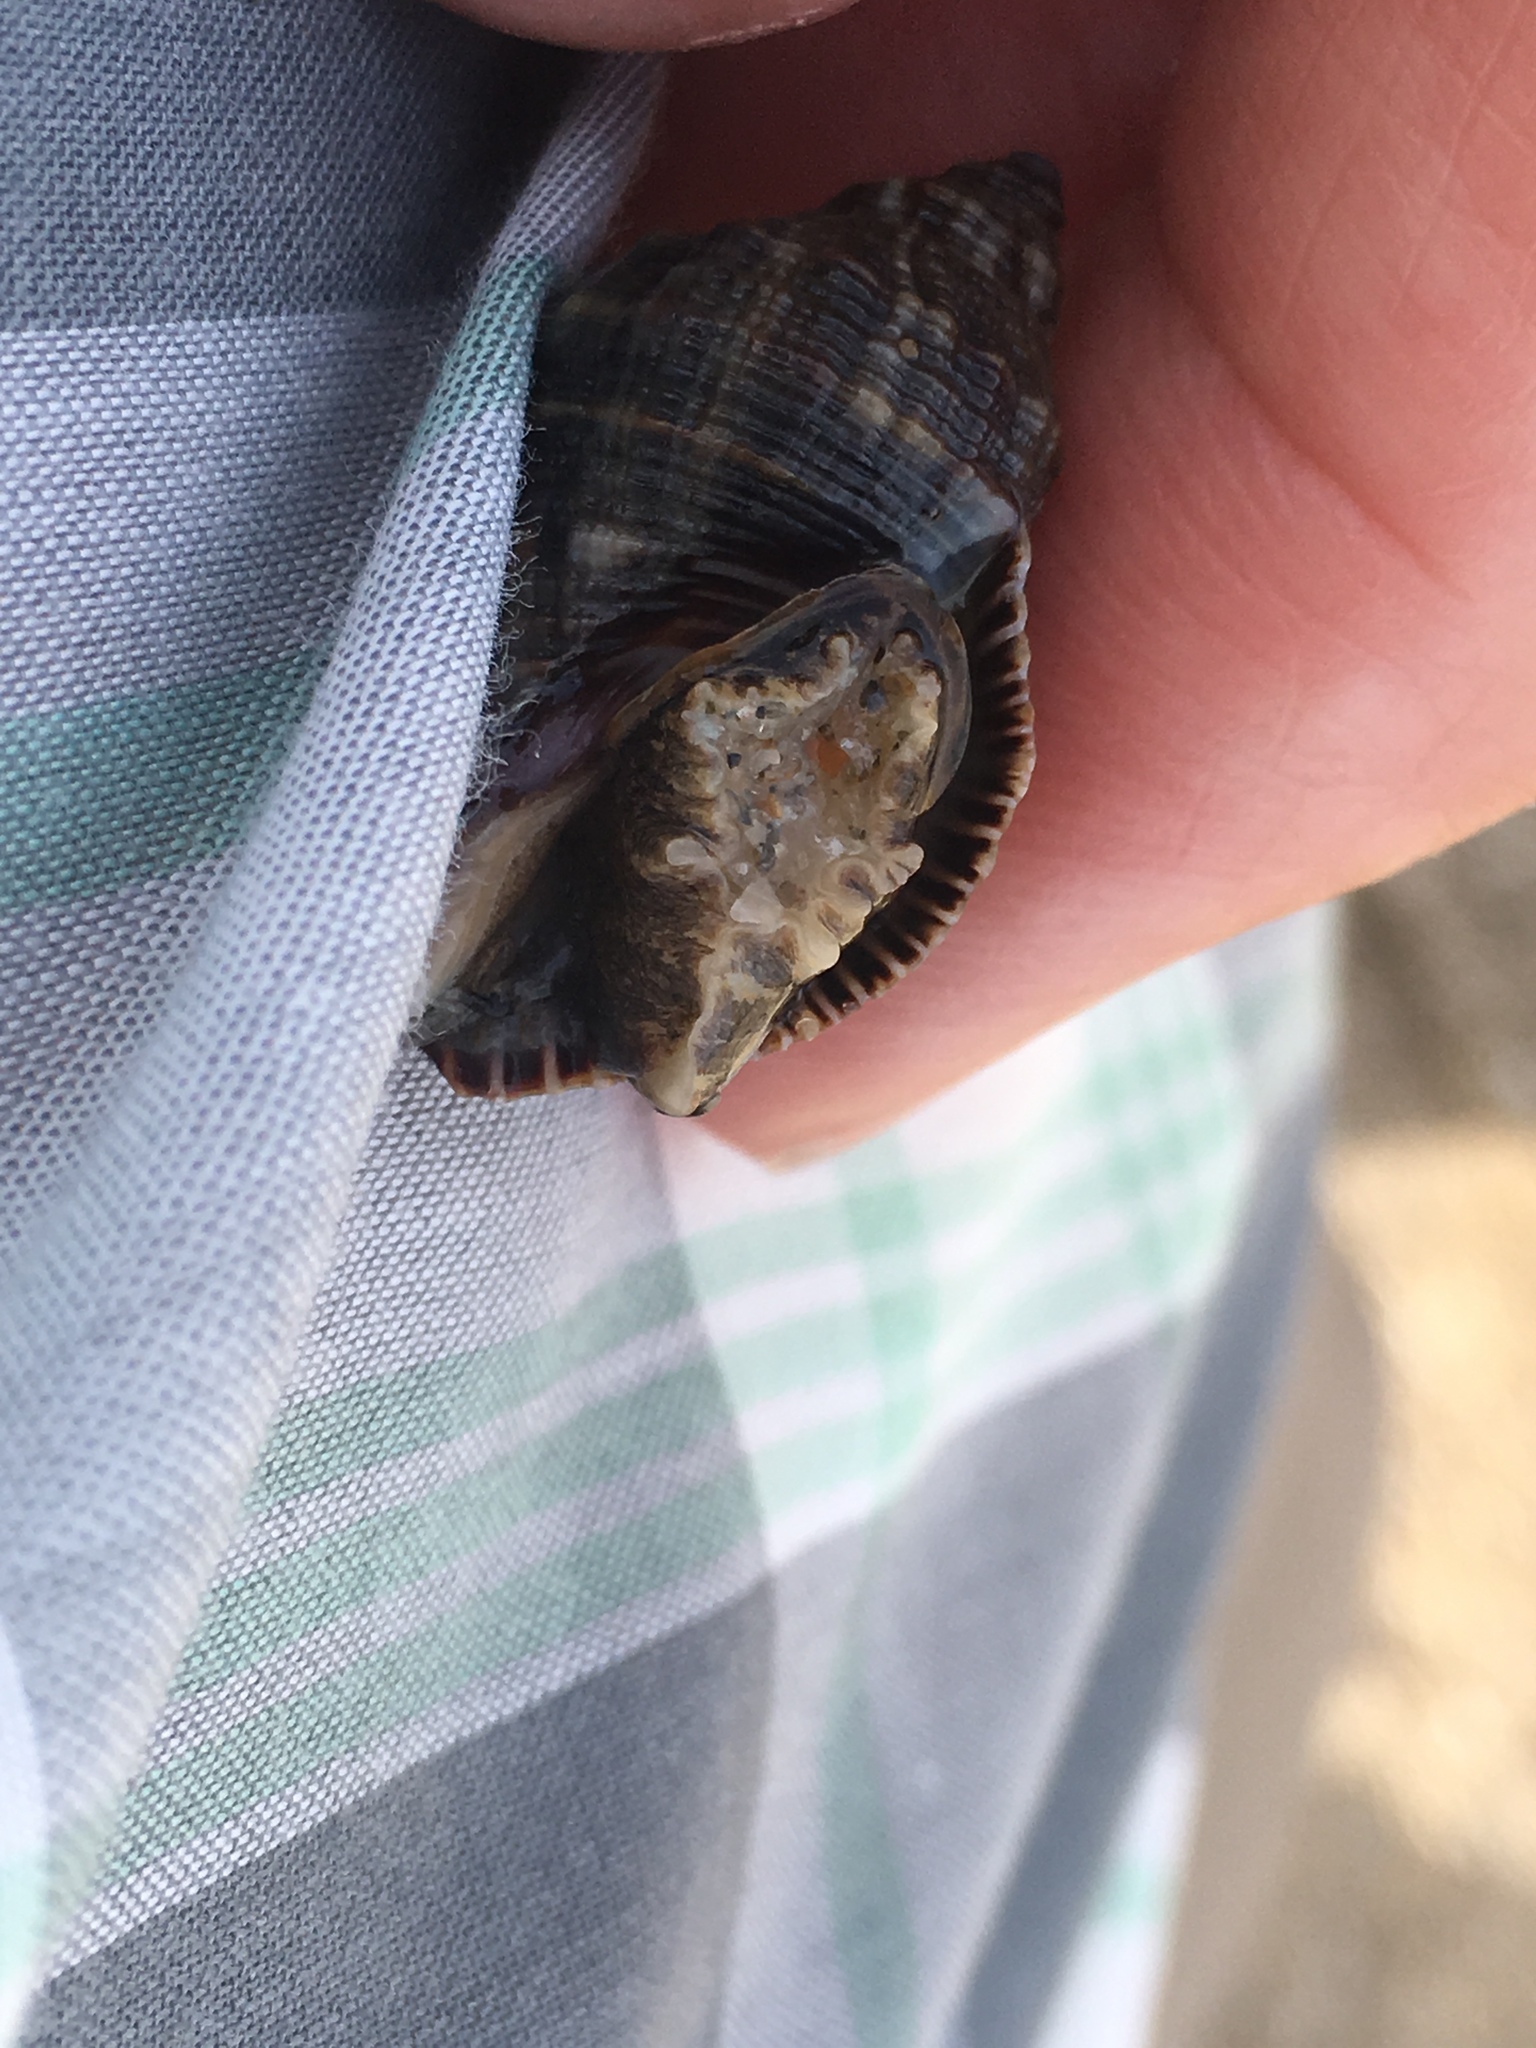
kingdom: Animalia
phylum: Mollusca
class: Gastropoda
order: Neogastropoda
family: Muricidae
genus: Stramonita
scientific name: Stramonita floridana
